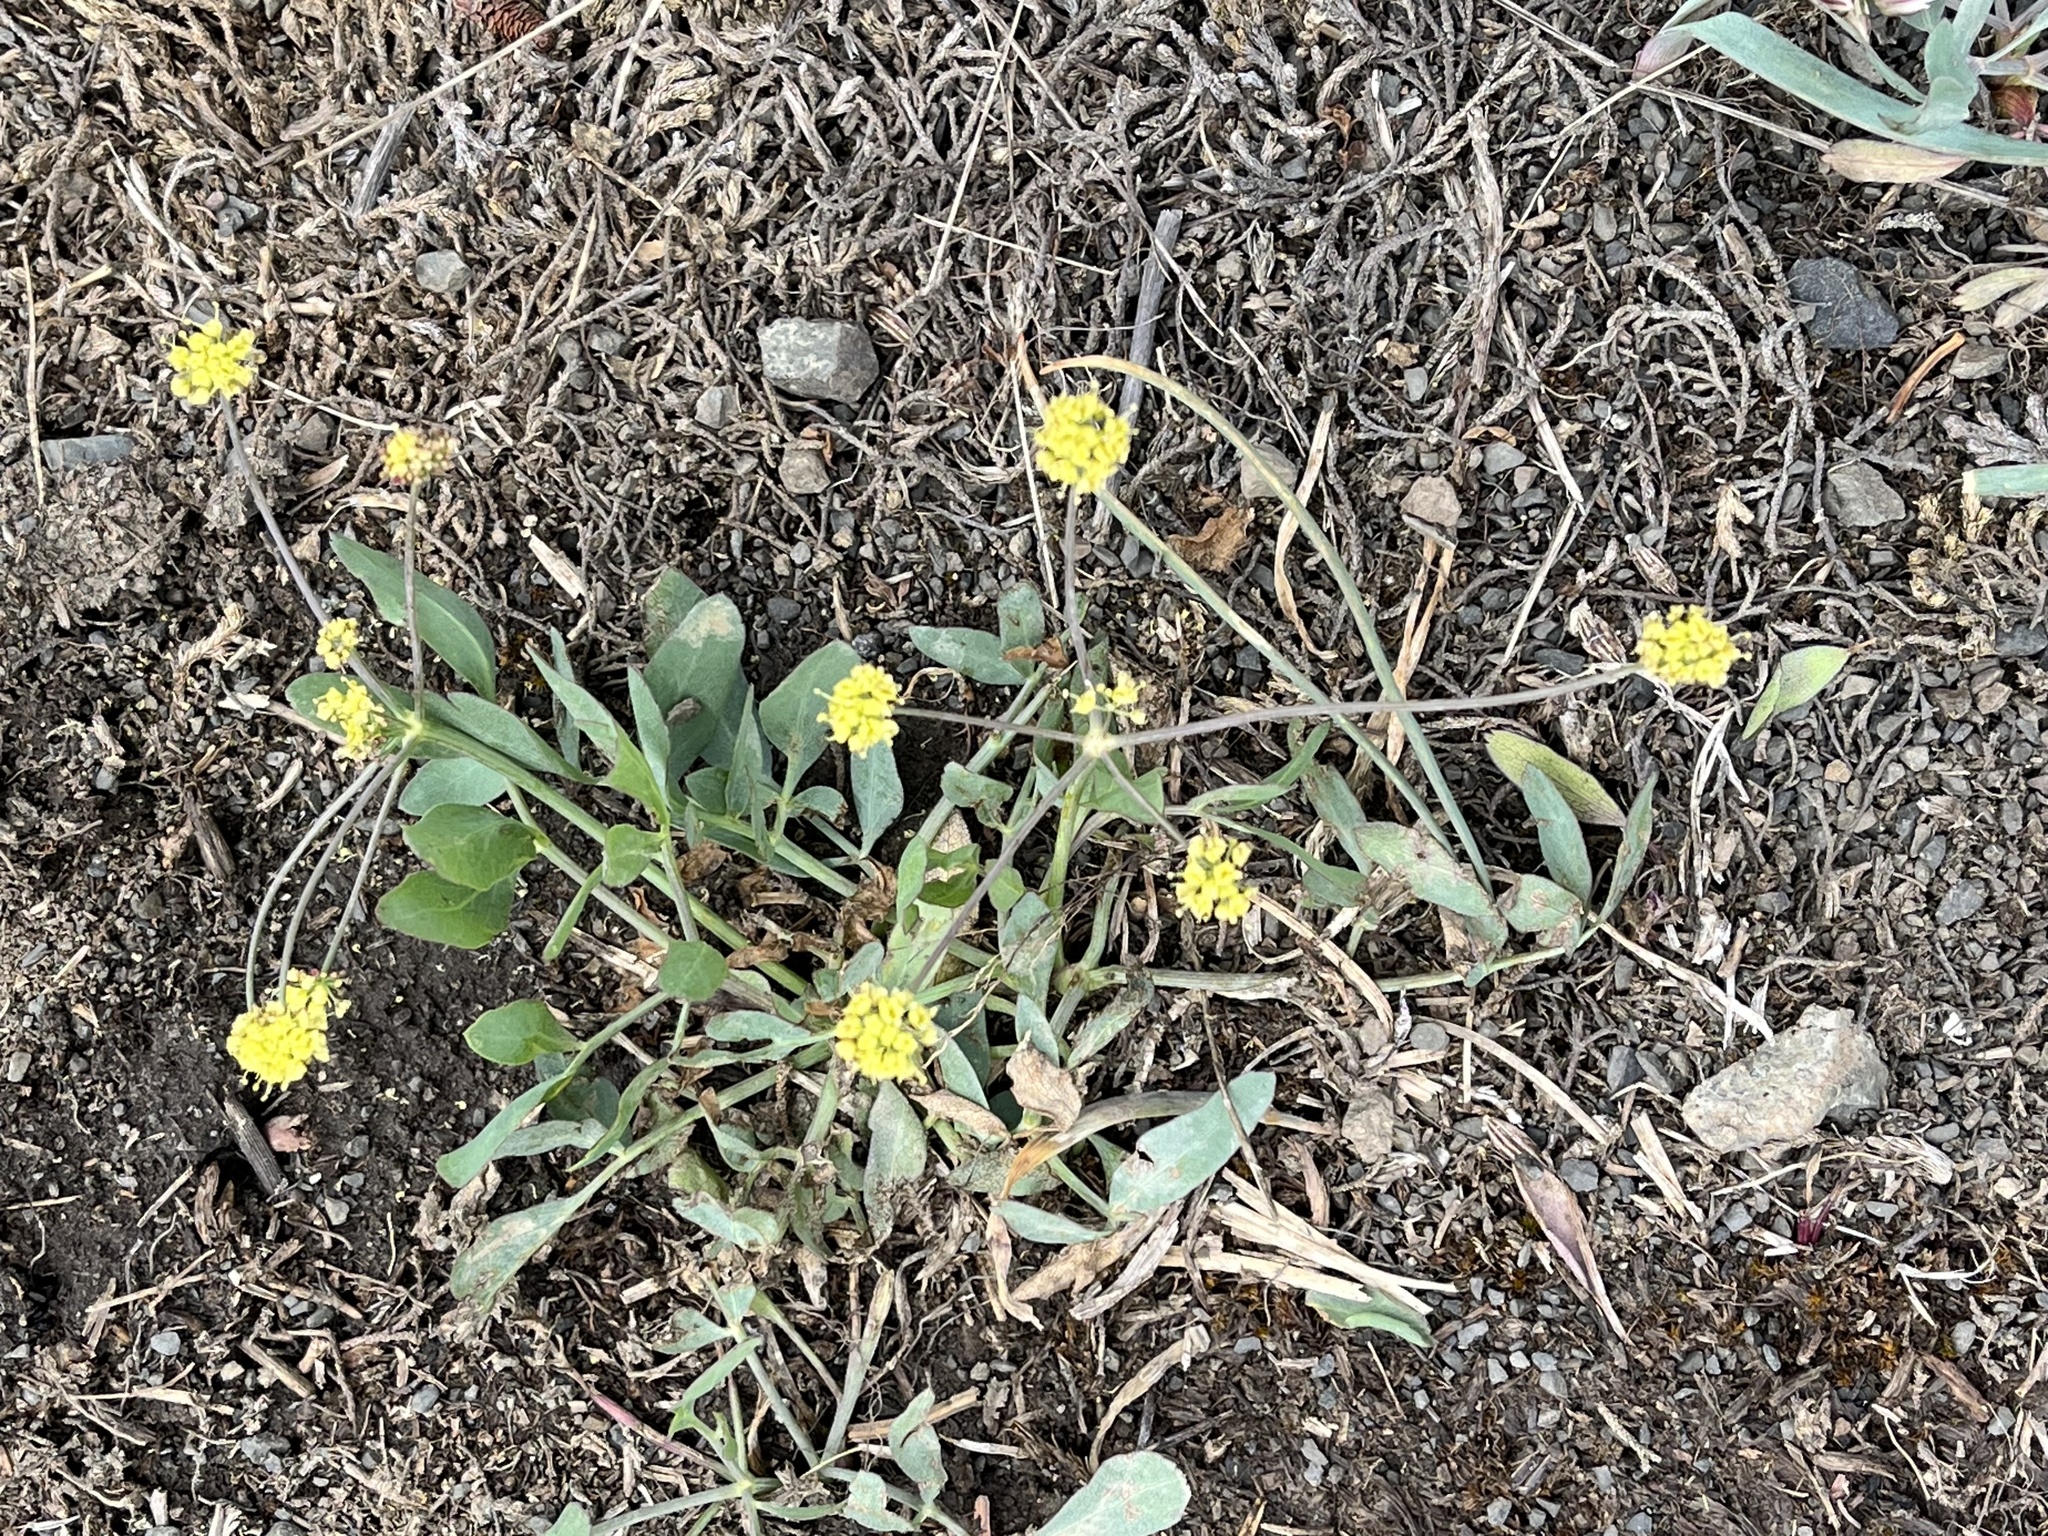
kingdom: Plantae
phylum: Tracheophyta
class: Magnoliopsida
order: Apiales
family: Apiaceae
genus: Lomatium
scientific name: Lomatium nudicaule
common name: Pestle lomatium
